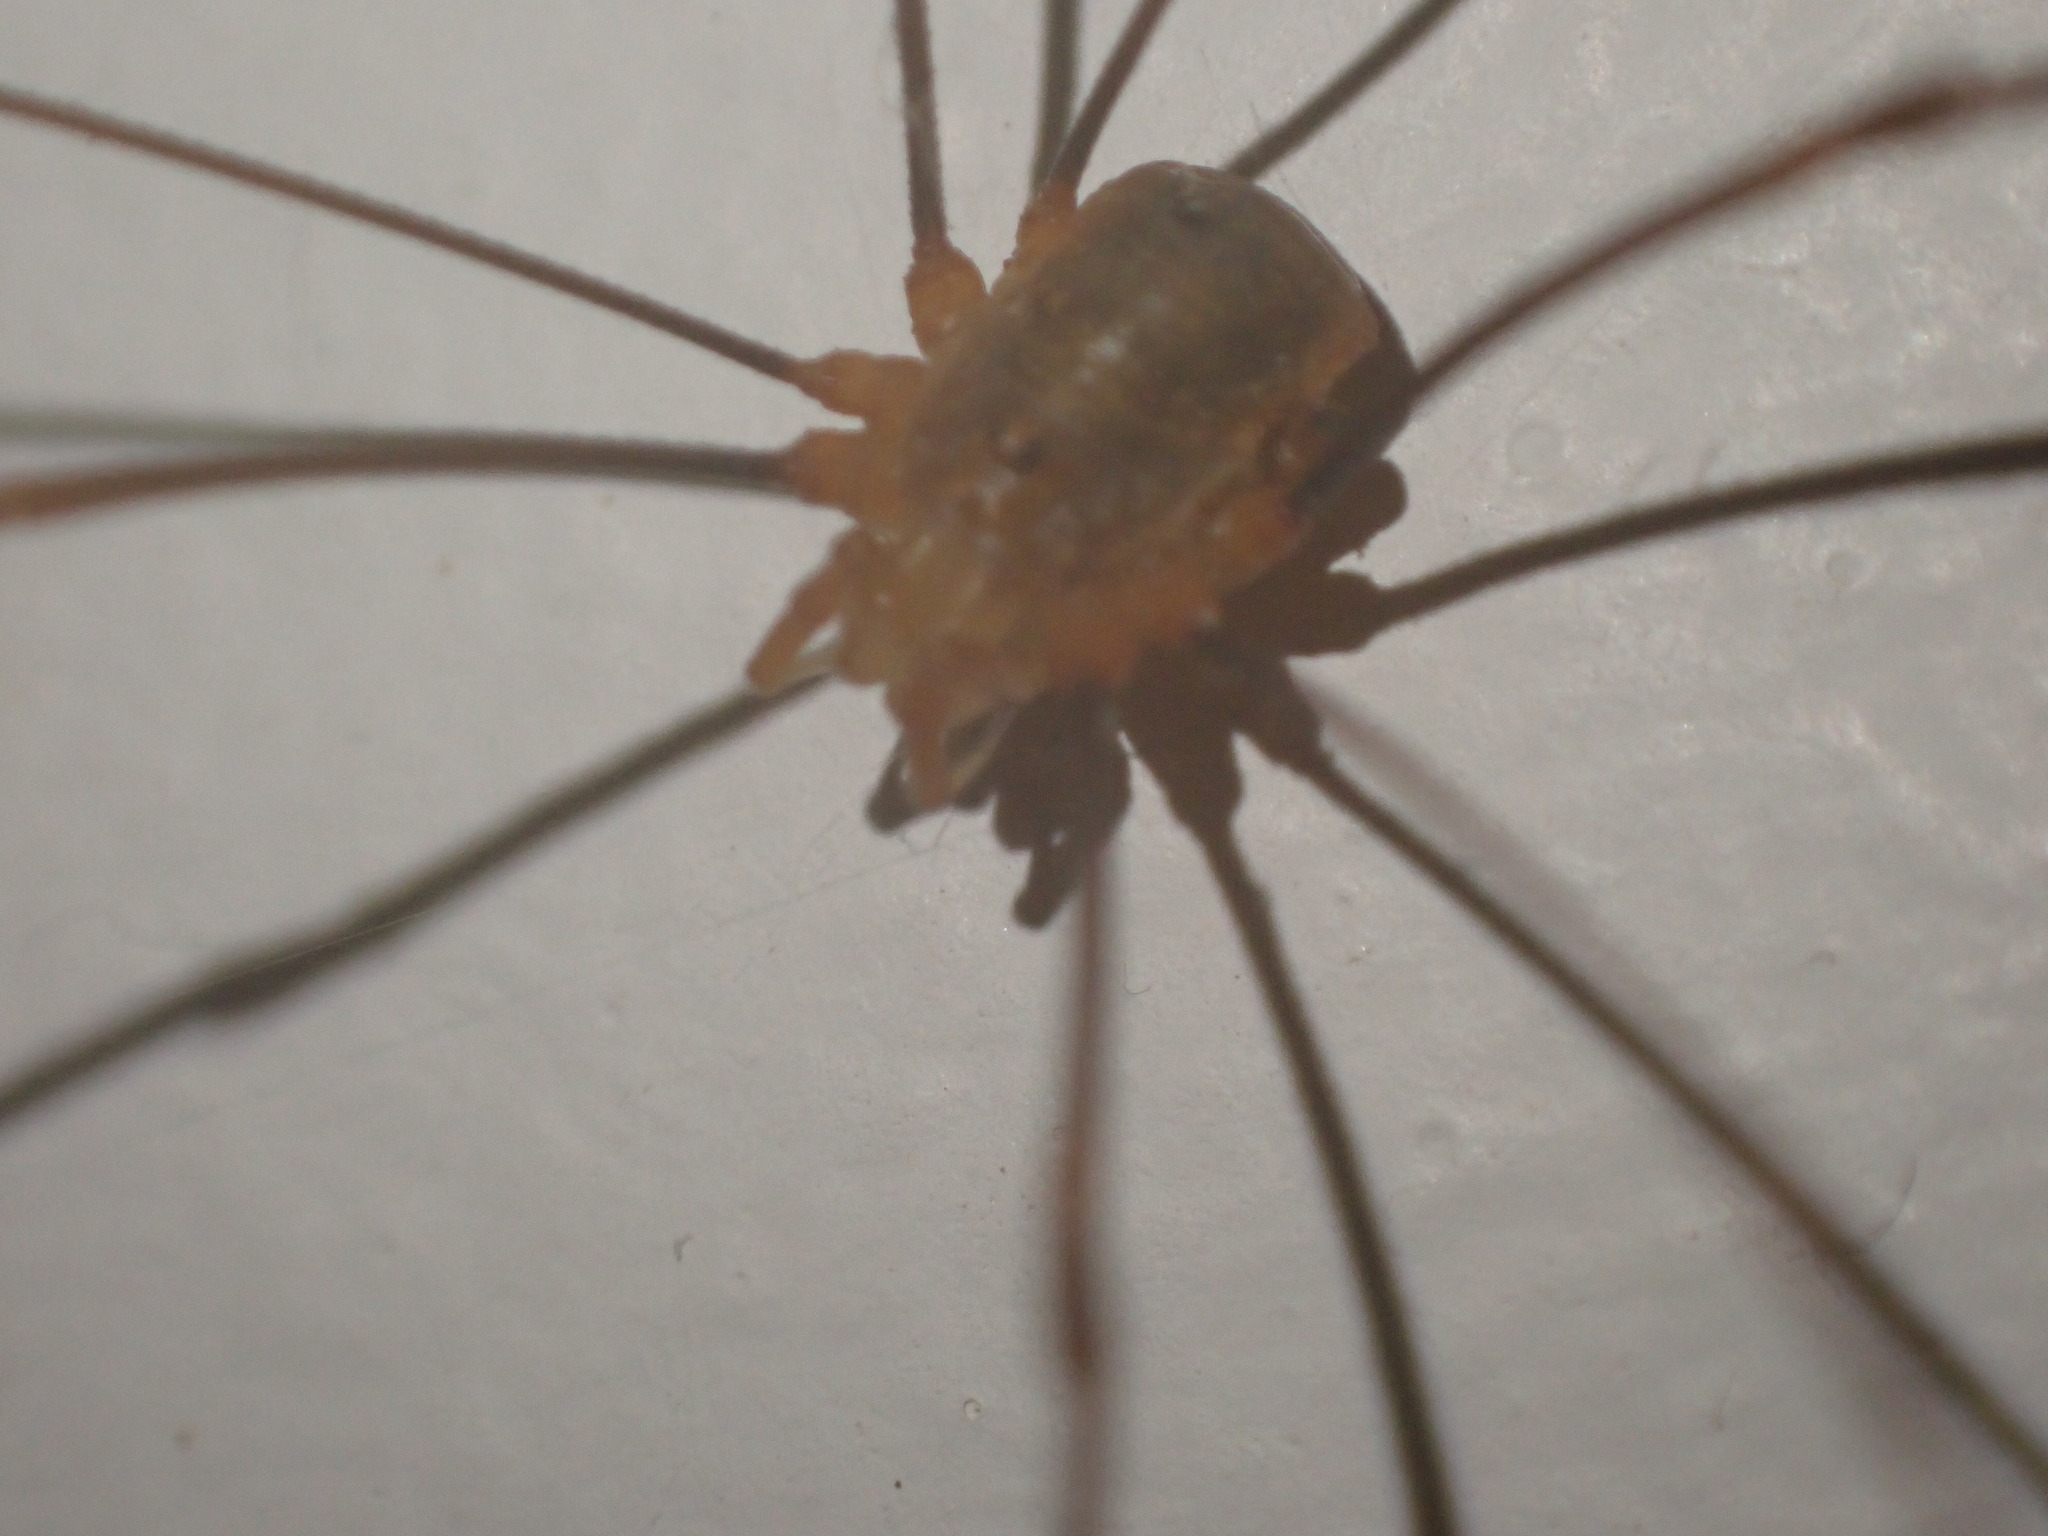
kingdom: Animalia
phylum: Arthropoda
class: Arachnida
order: Opiliones
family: Phalangiidae
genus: Opilio
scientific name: Opilio canestrinii
